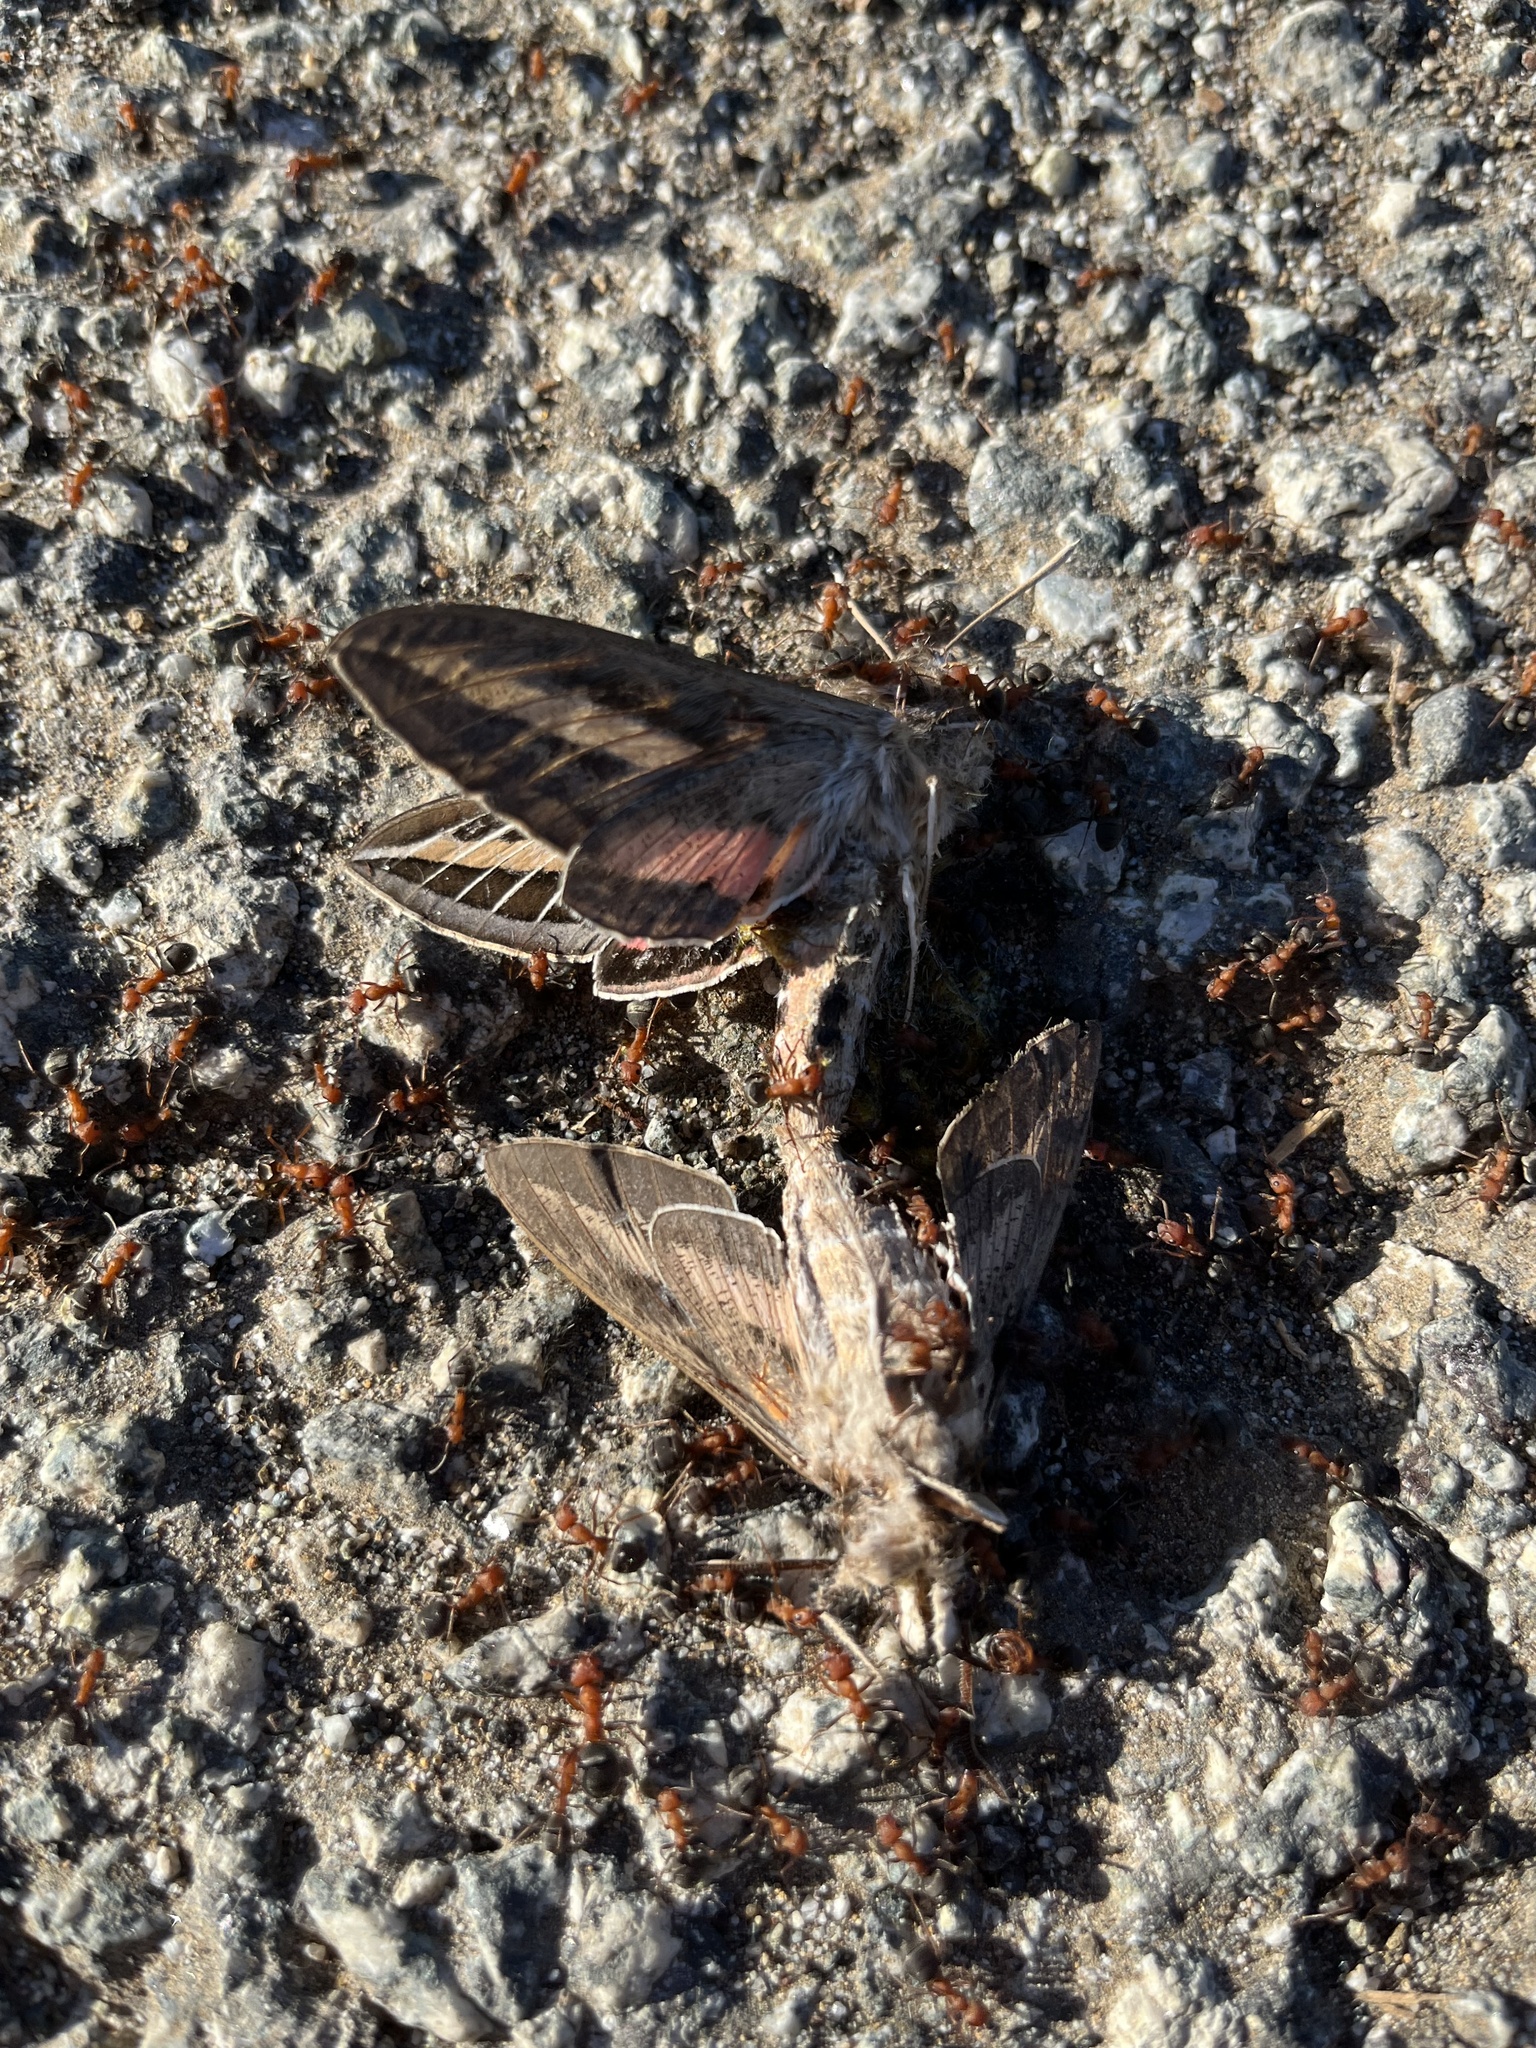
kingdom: Animalia
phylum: Arthropoda
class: Insecta
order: Lepidoptera
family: Sphingidae
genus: Hyles
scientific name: Hyles lineata
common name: White-lined sphinx
